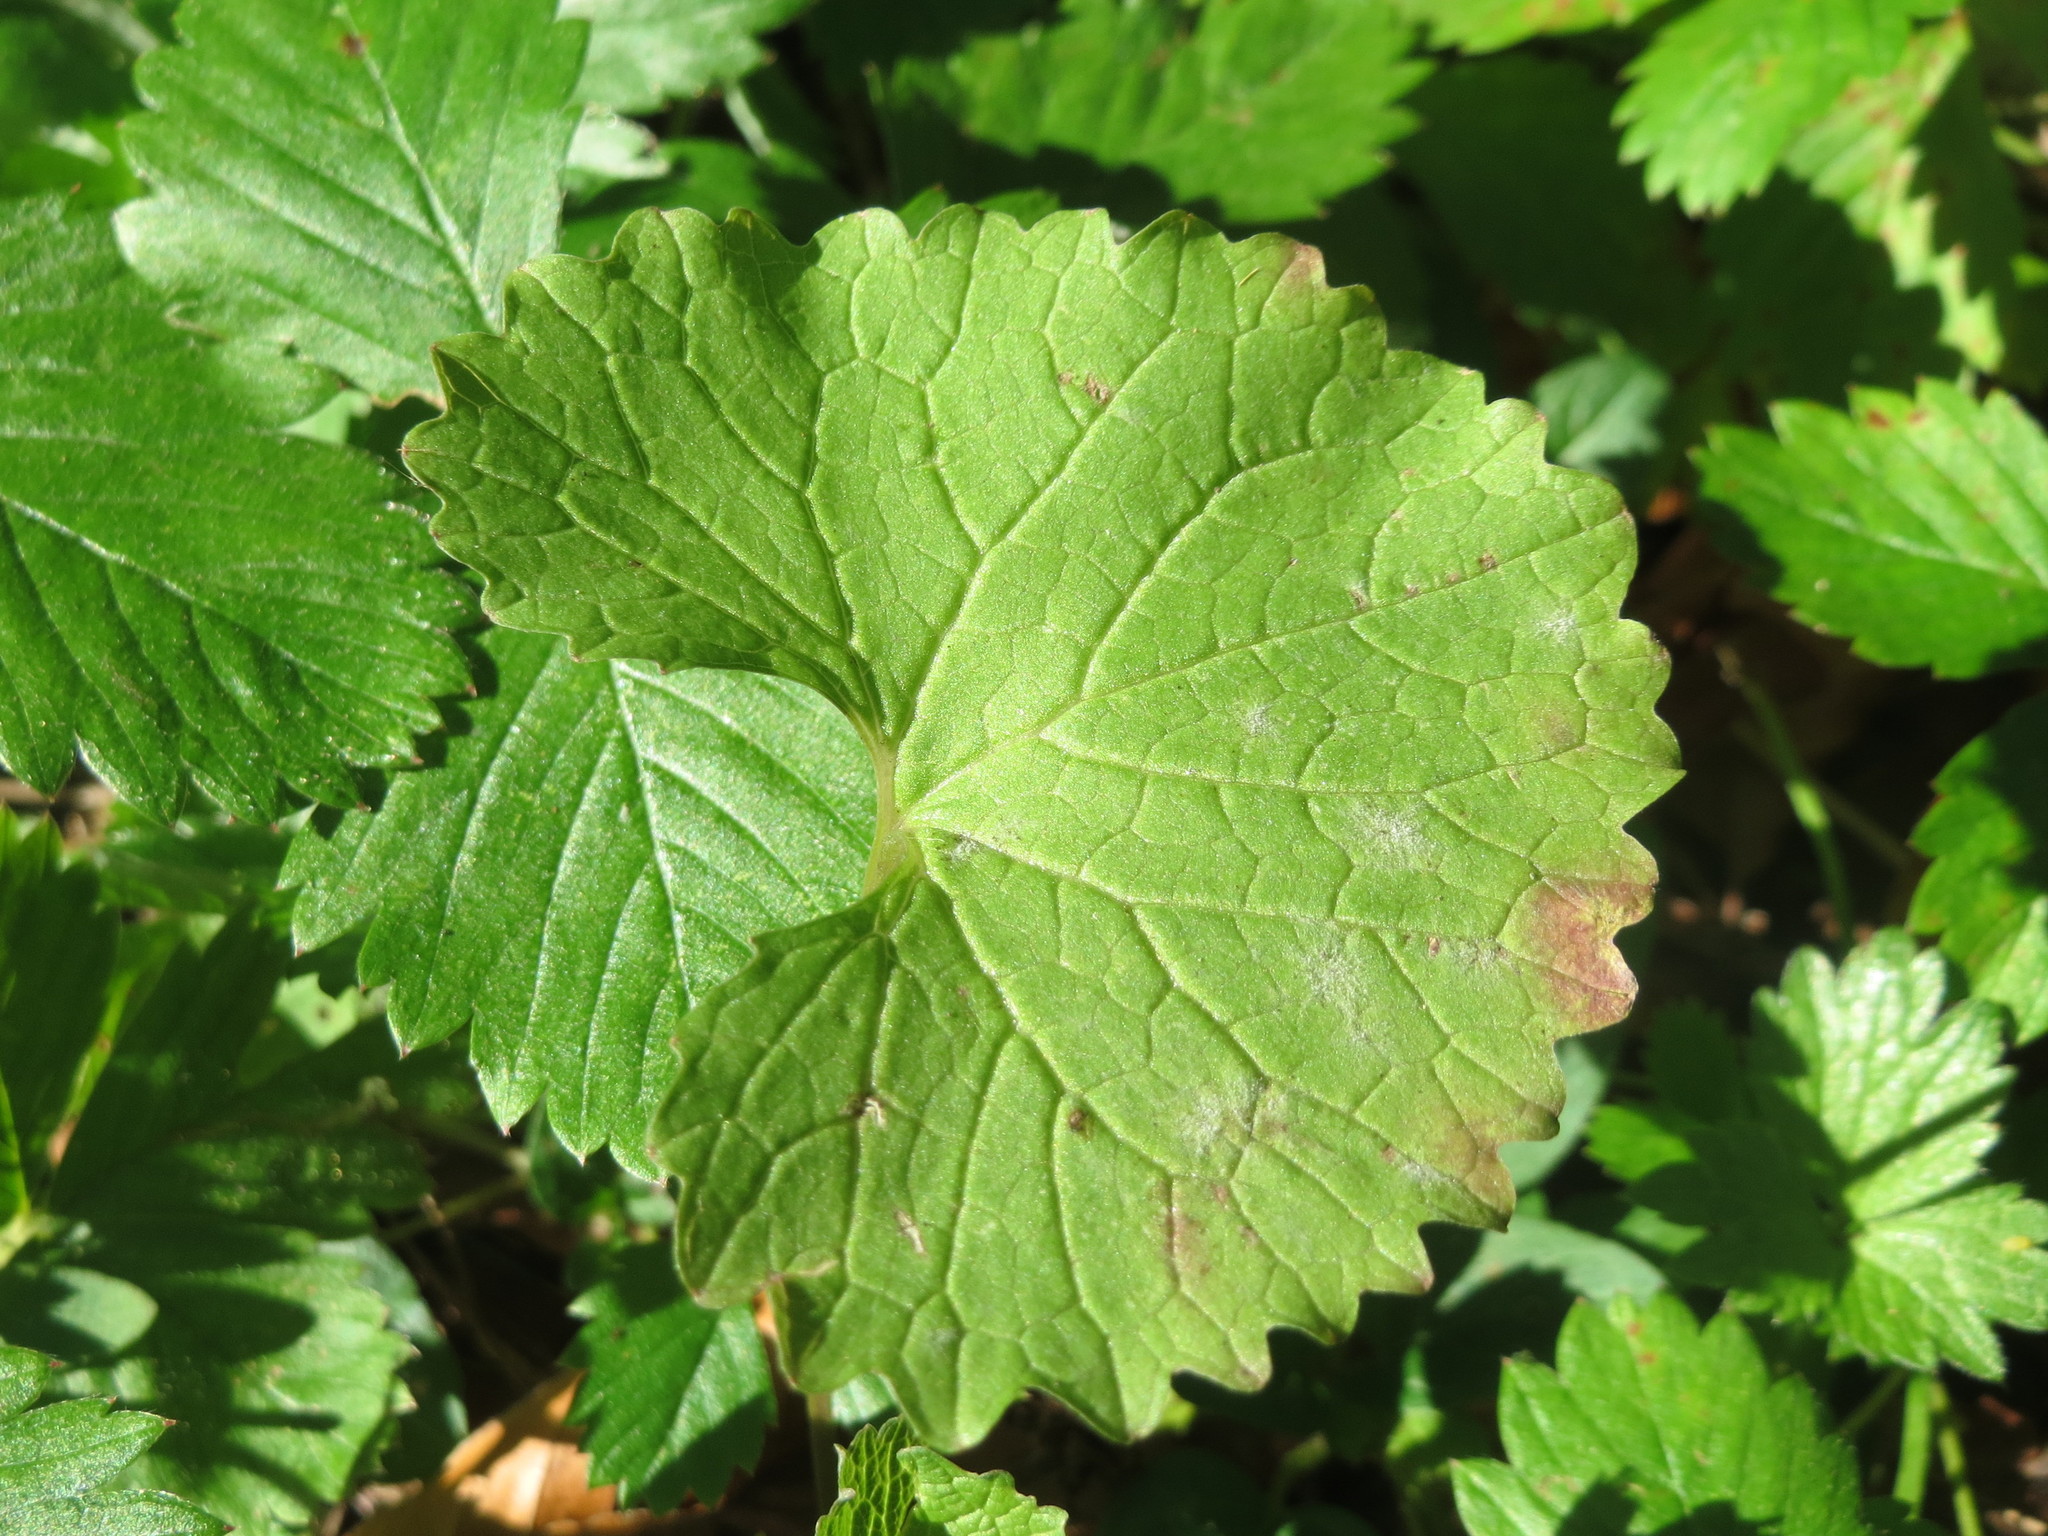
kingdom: Plantae
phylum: Tracheophyta
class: Magnoliopsida
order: Brassicales
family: Brassicaceae
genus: Alliaria
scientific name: Alliaria petiolata
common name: Garlic mustard
